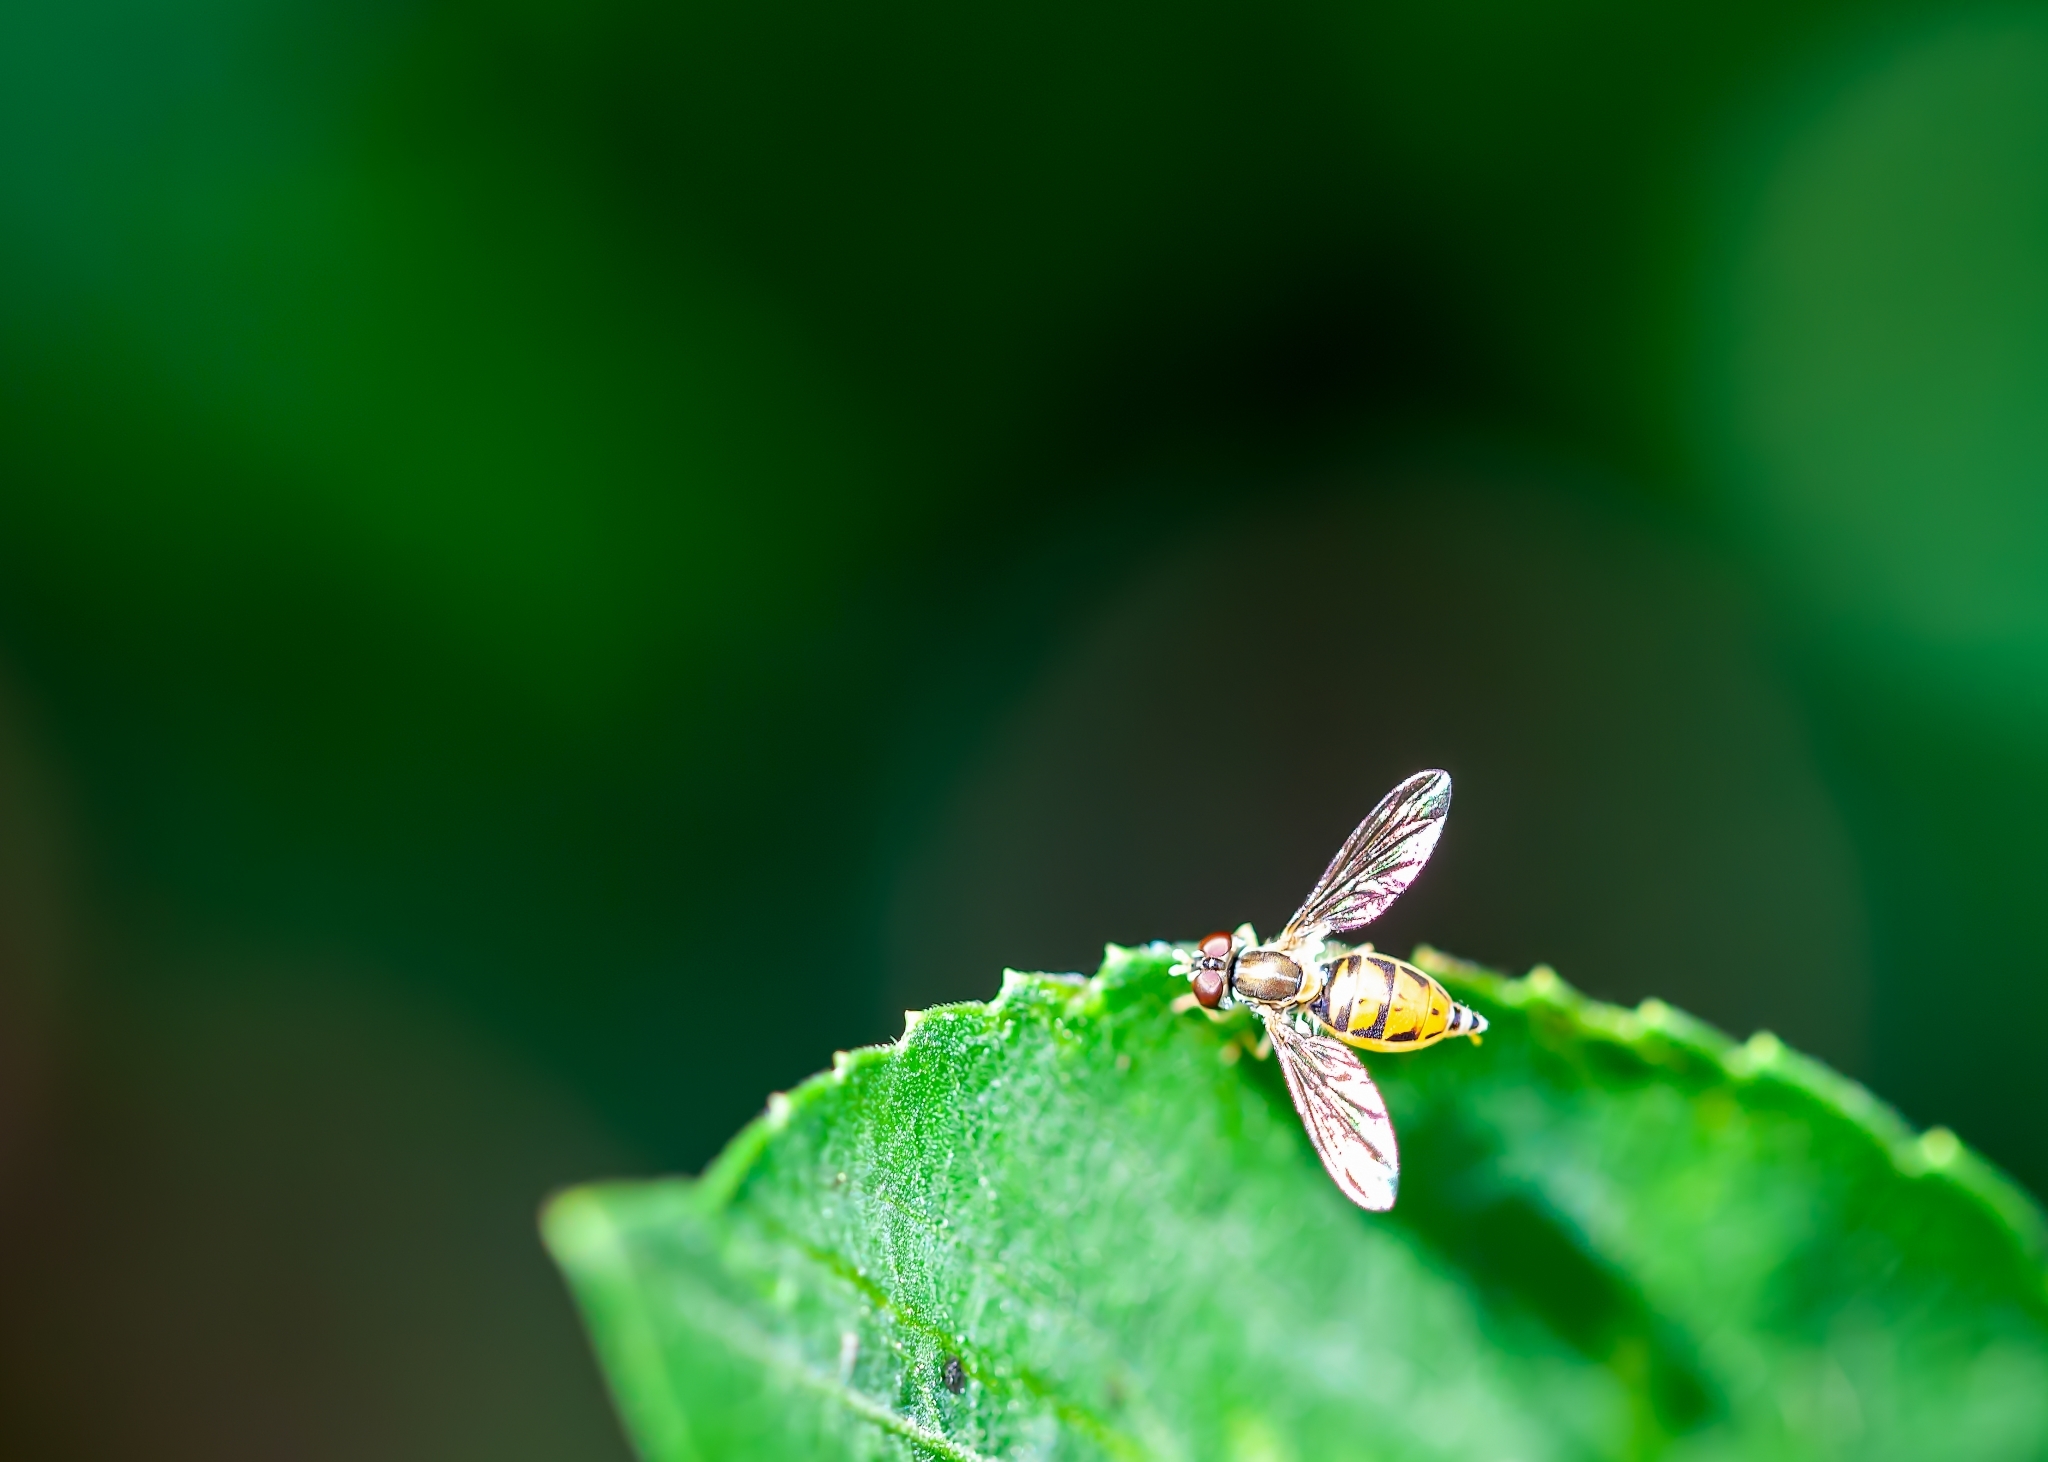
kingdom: Animalia
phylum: Arthropoda
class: Insecta
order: Diptera
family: Syrphidae
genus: Toxomerus
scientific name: Toxomerus marginatus
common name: Syrphid fly
